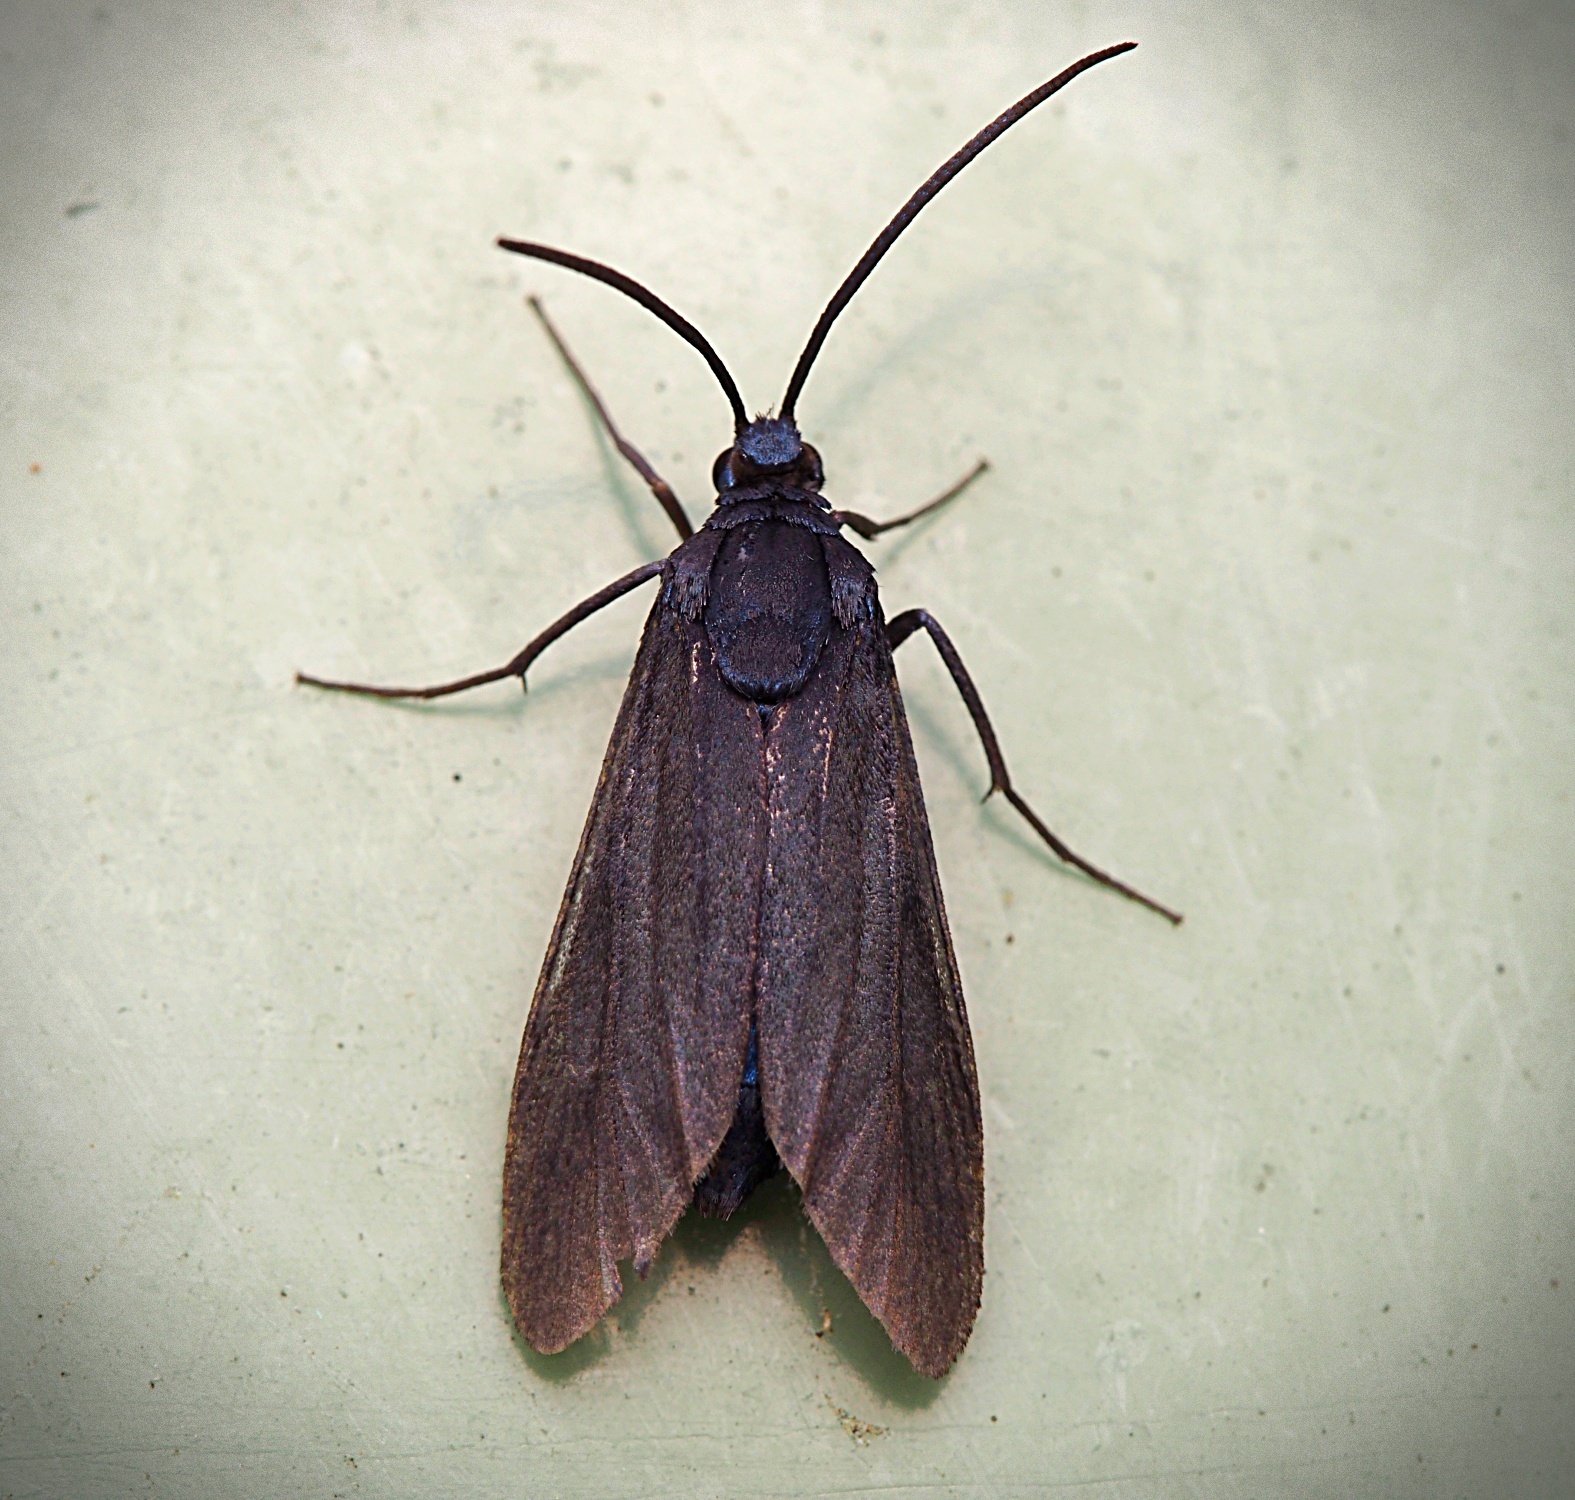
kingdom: Animalia
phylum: Arthropoda
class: Insecta
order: Lepidoptera
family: Zygaenidae
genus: Artona
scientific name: Artona martini
